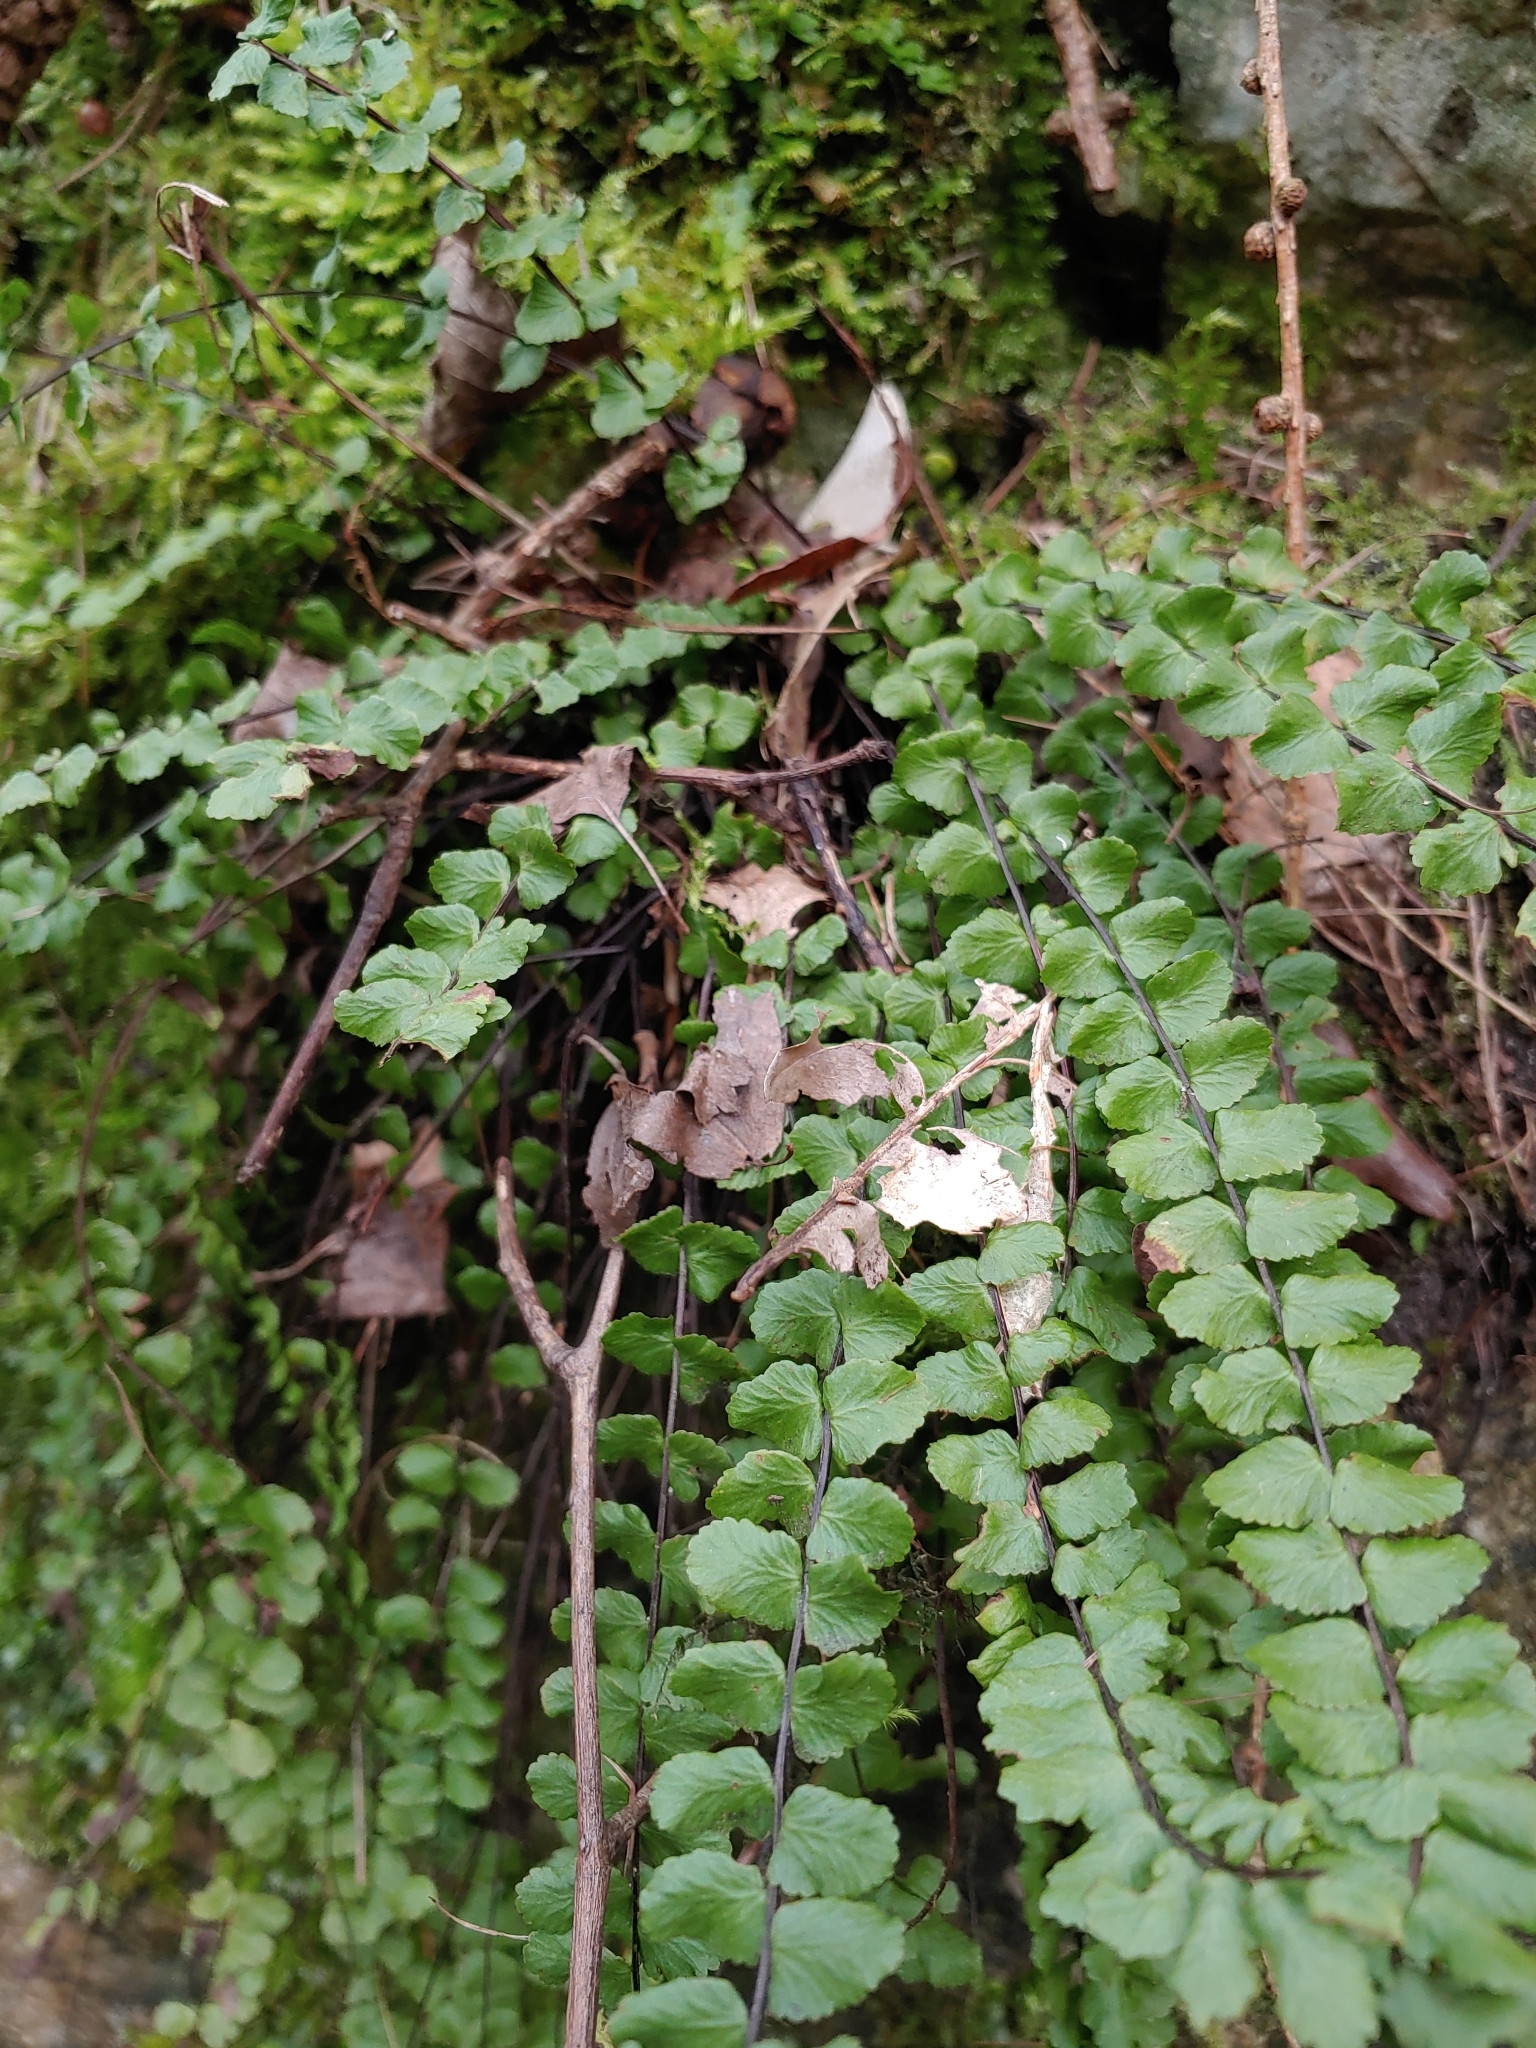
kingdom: Plantae
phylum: Tracheophyta
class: Polypodiopsida
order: Polypodiales
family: Aspleniaceae
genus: Asplenium
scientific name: Asplenium trichomanes
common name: Maidenhair spleenwort
